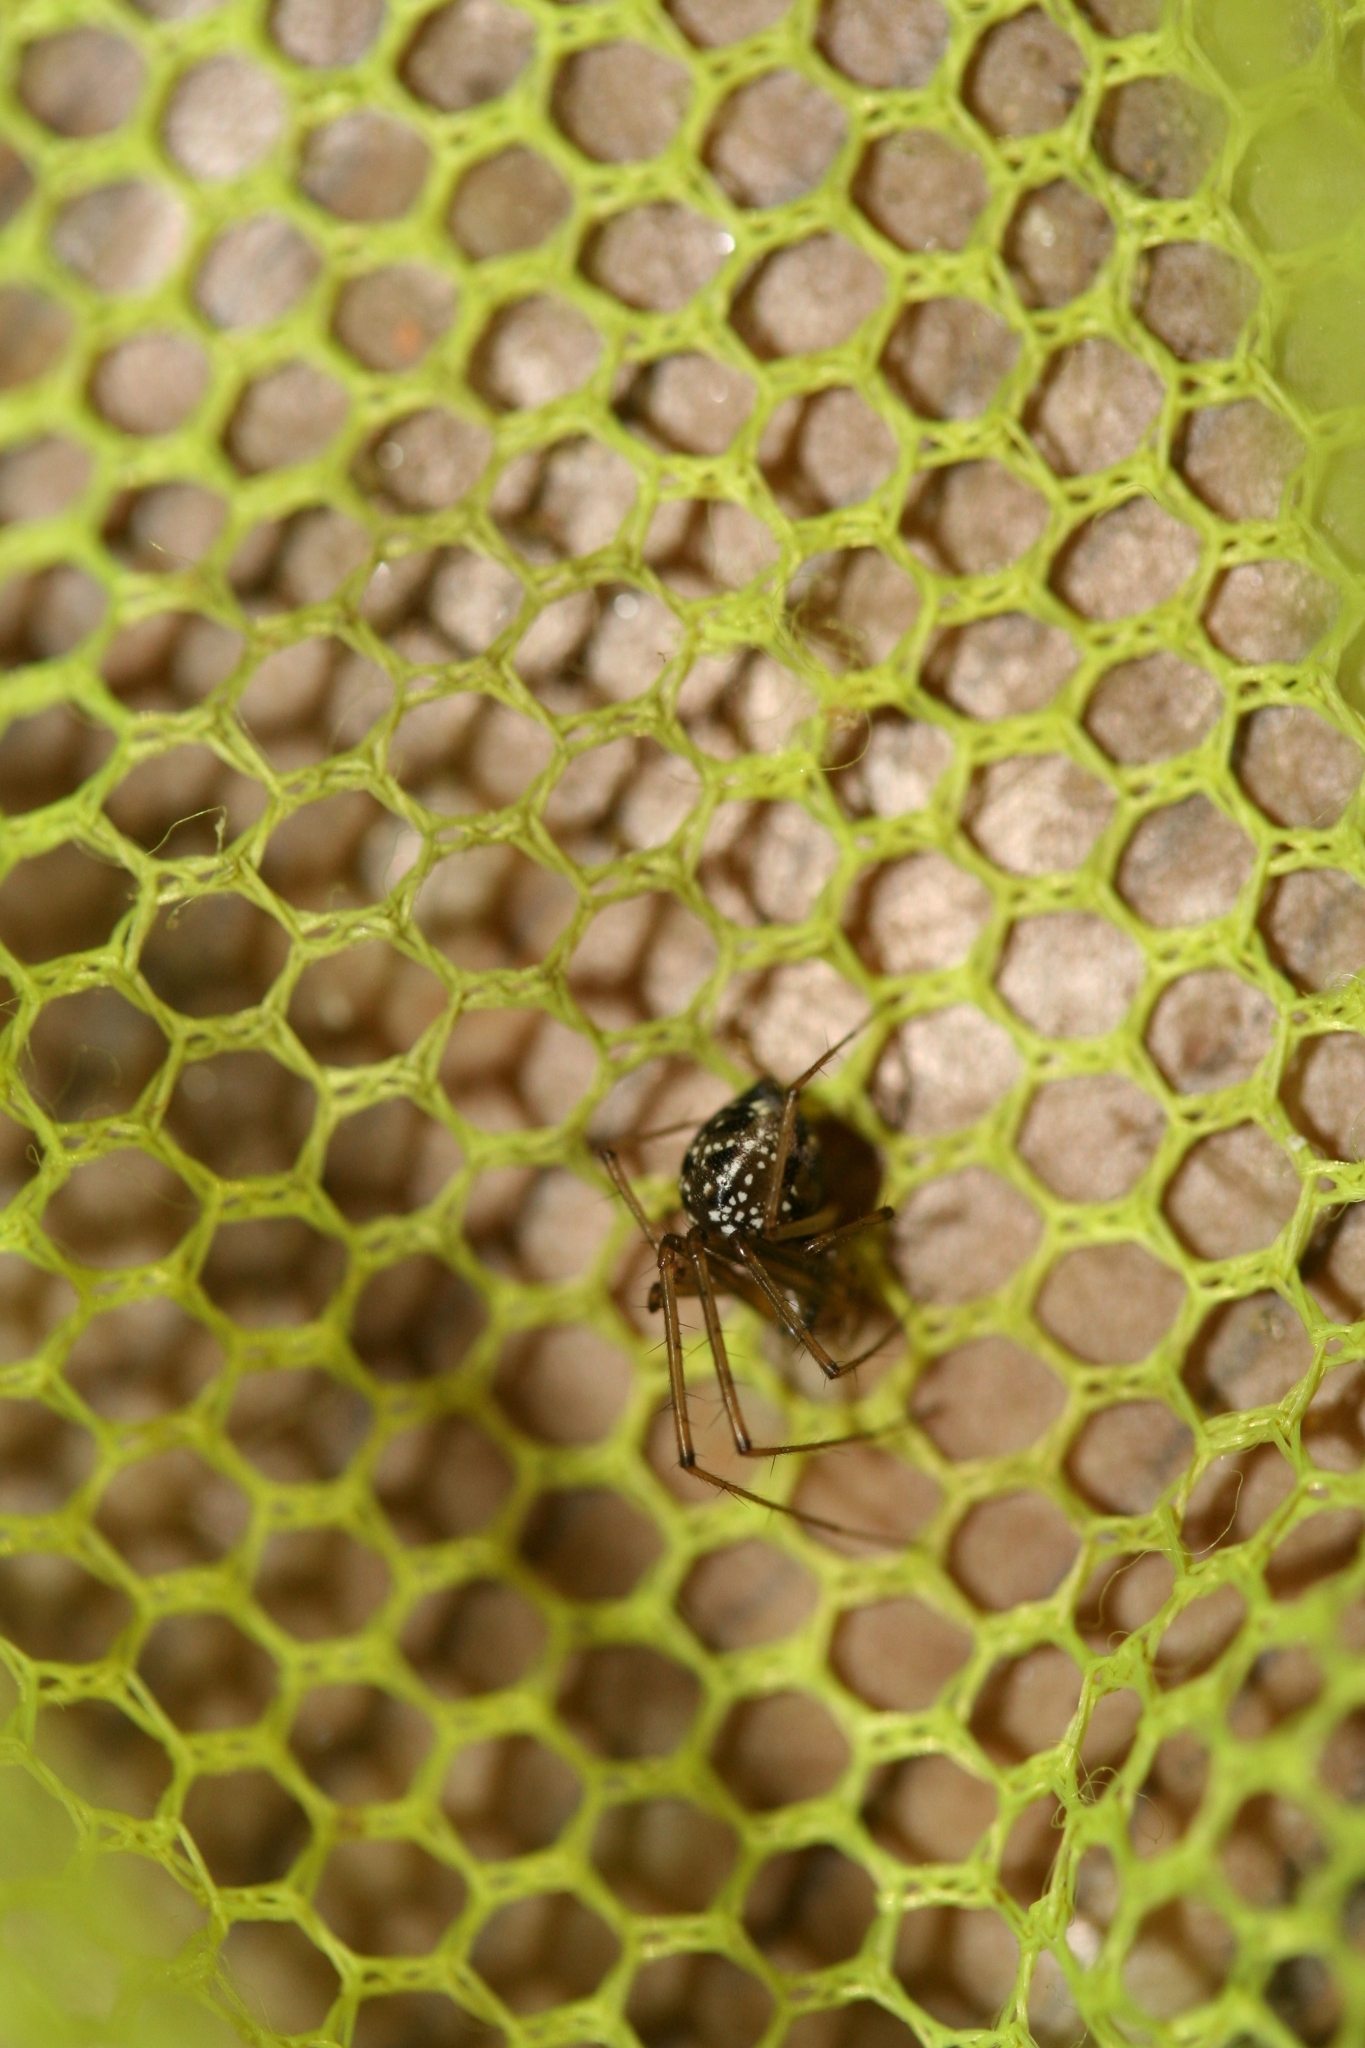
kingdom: Animalia
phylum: Arthropoda
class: Arachnida
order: Araneae
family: Linyphiidae
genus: Floronia
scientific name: Floronia bucculenta
